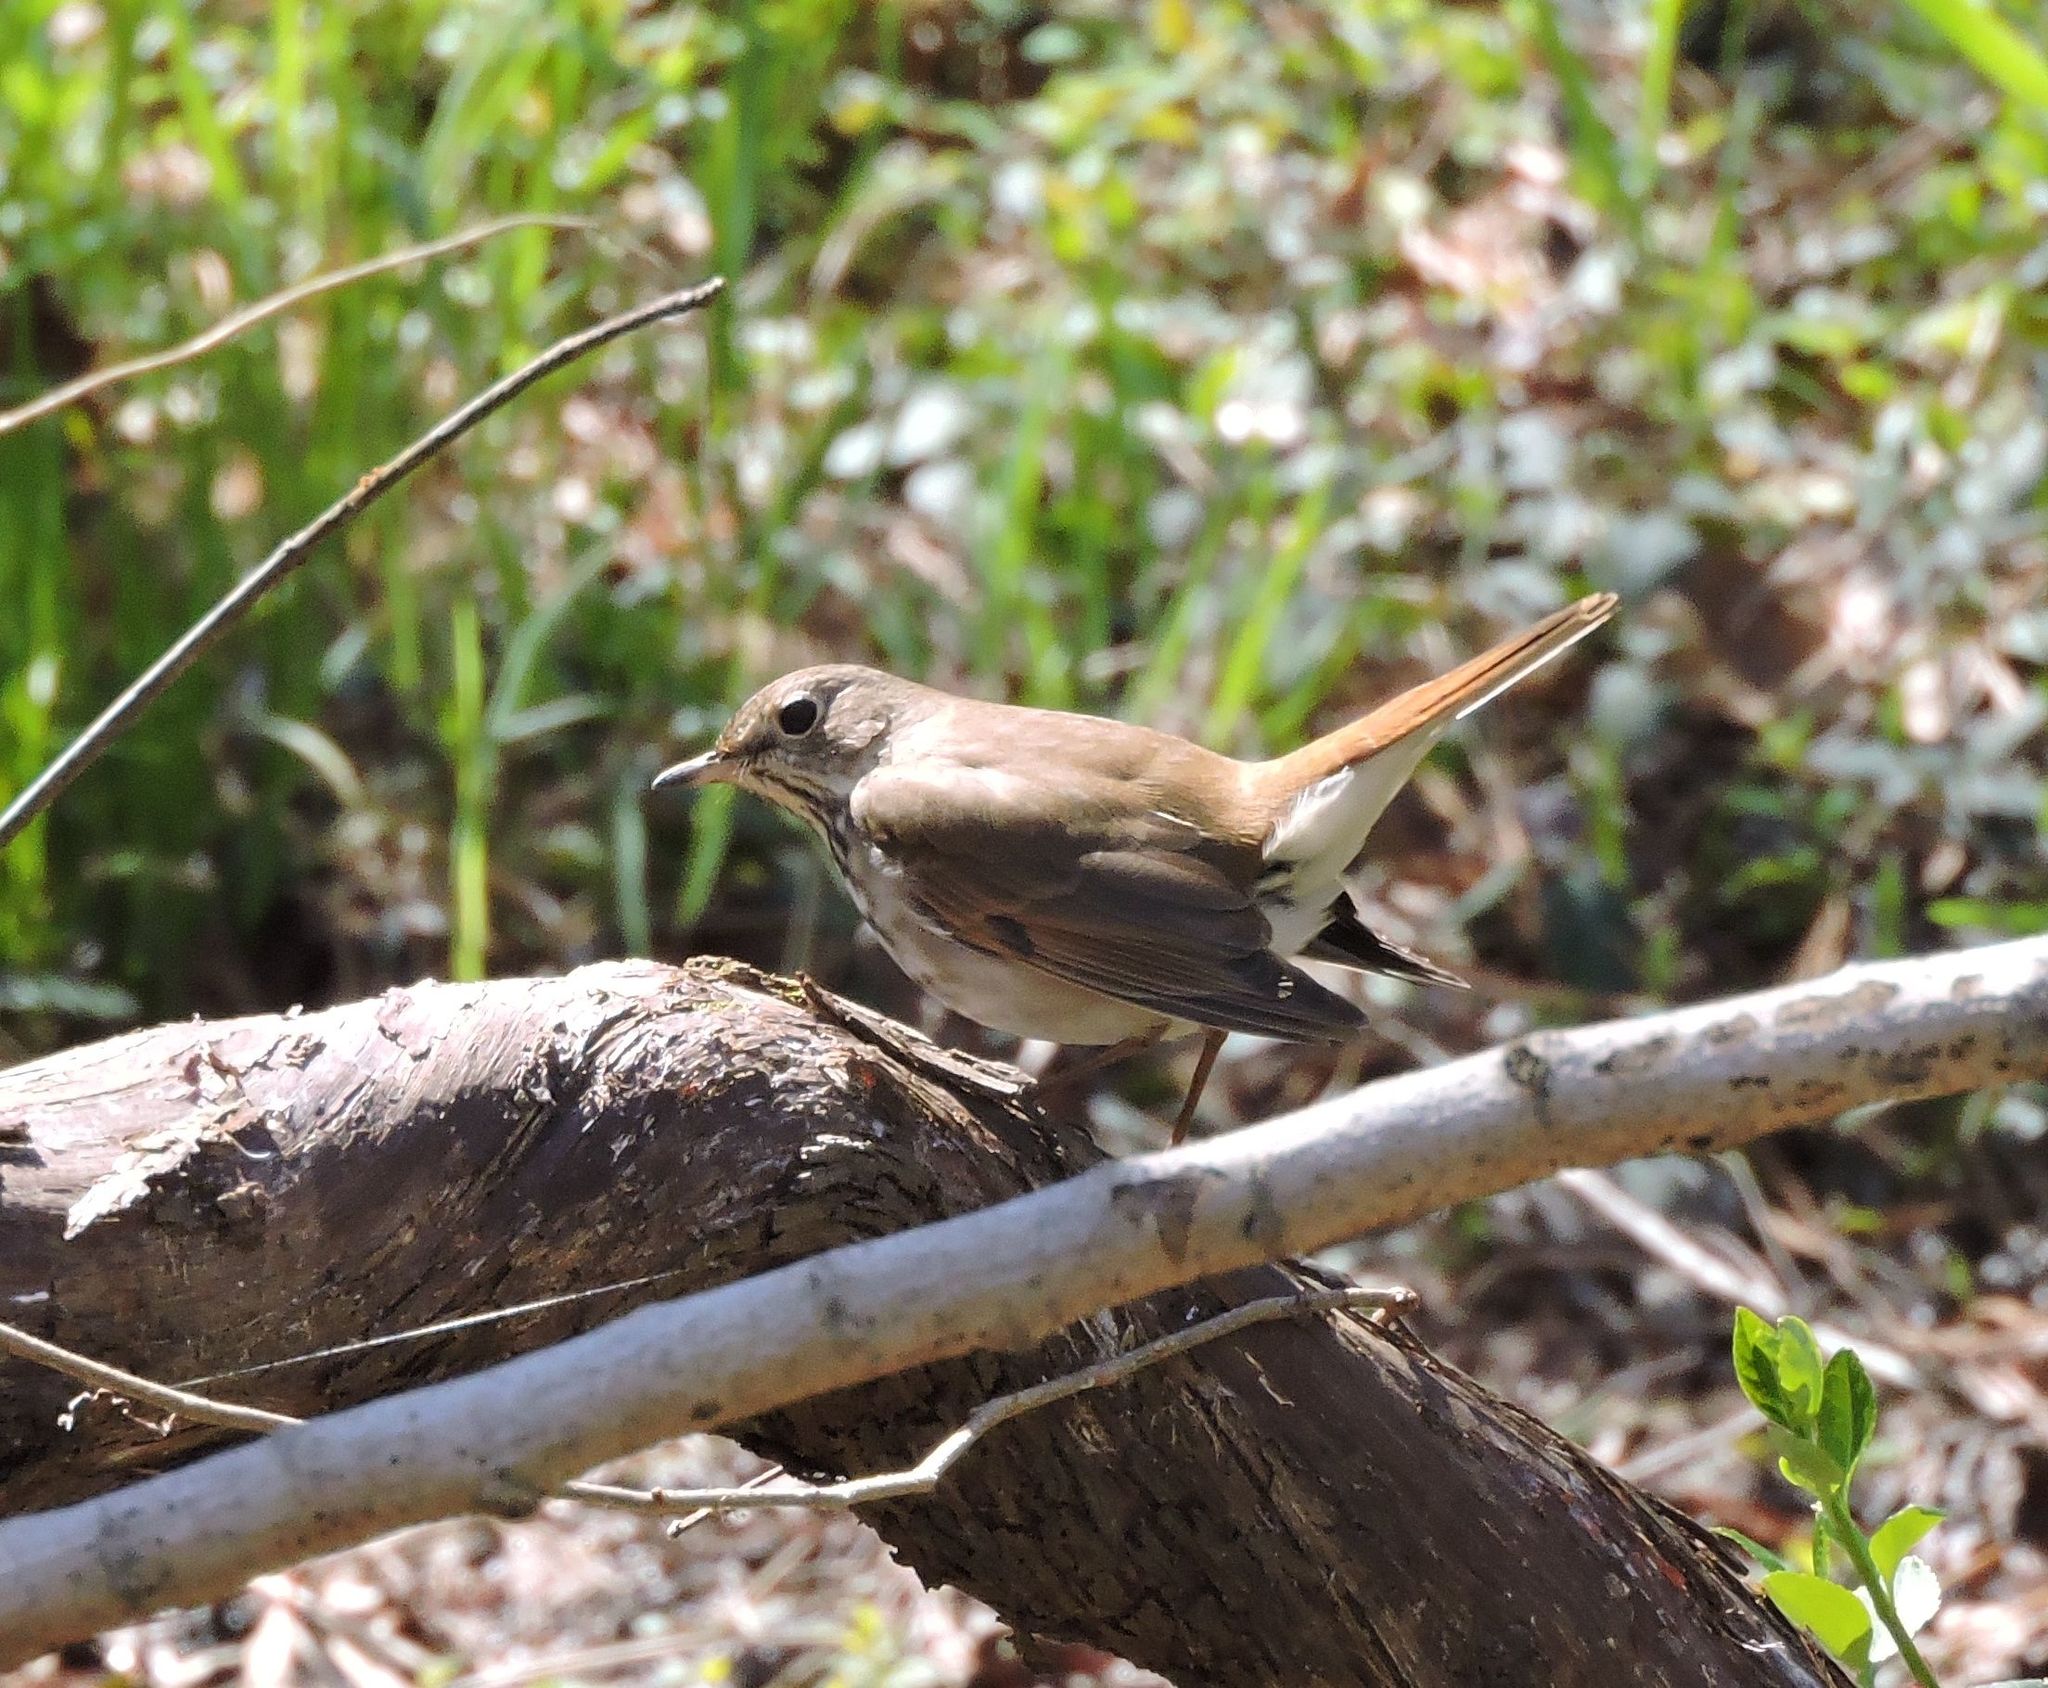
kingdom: Animalia
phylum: Chordata
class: Aves
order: Passeriformes
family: Turdidae
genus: Catharus
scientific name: Catharus guttatus
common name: Hermit thrush
